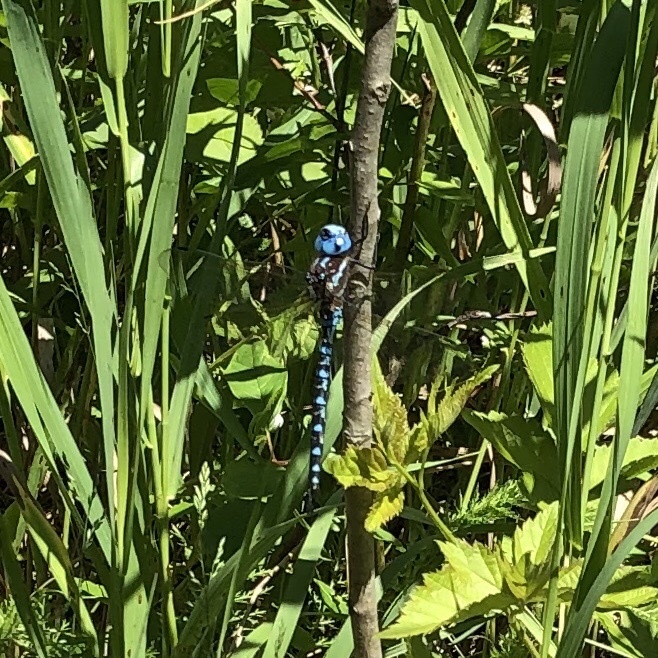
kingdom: Animalia
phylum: Arthropoda
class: Insecta
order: Odonata
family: Aeshnidae
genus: Rhionaeschna
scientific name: Rhionaeschna mutata
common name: Spatterdock darner
